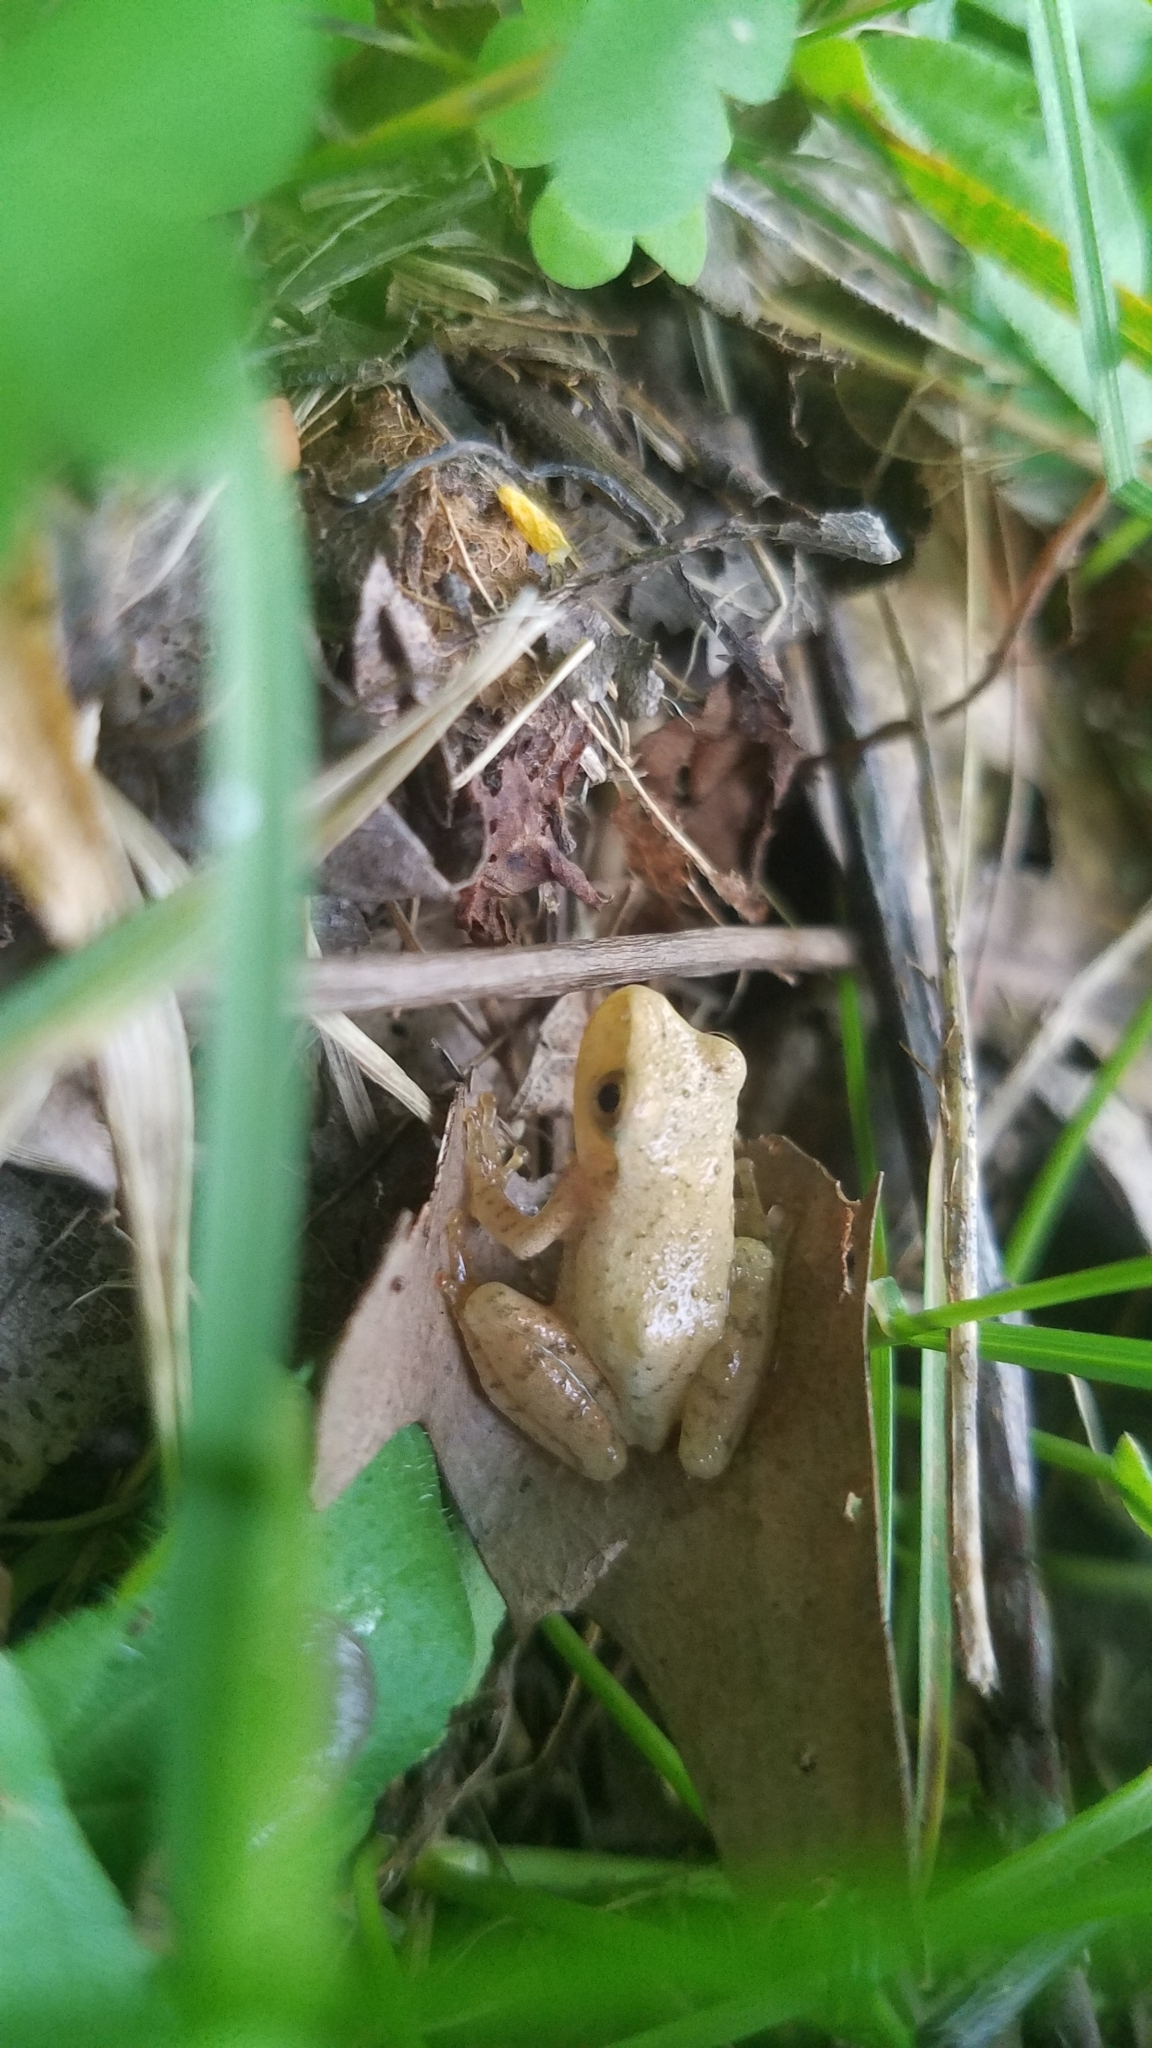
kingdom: Animalia
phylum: Chordata
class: Amphibia
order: Anura
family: Hylidae
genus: Pseudacris
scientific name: Pseudacris crucifer
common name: Spring peeper
